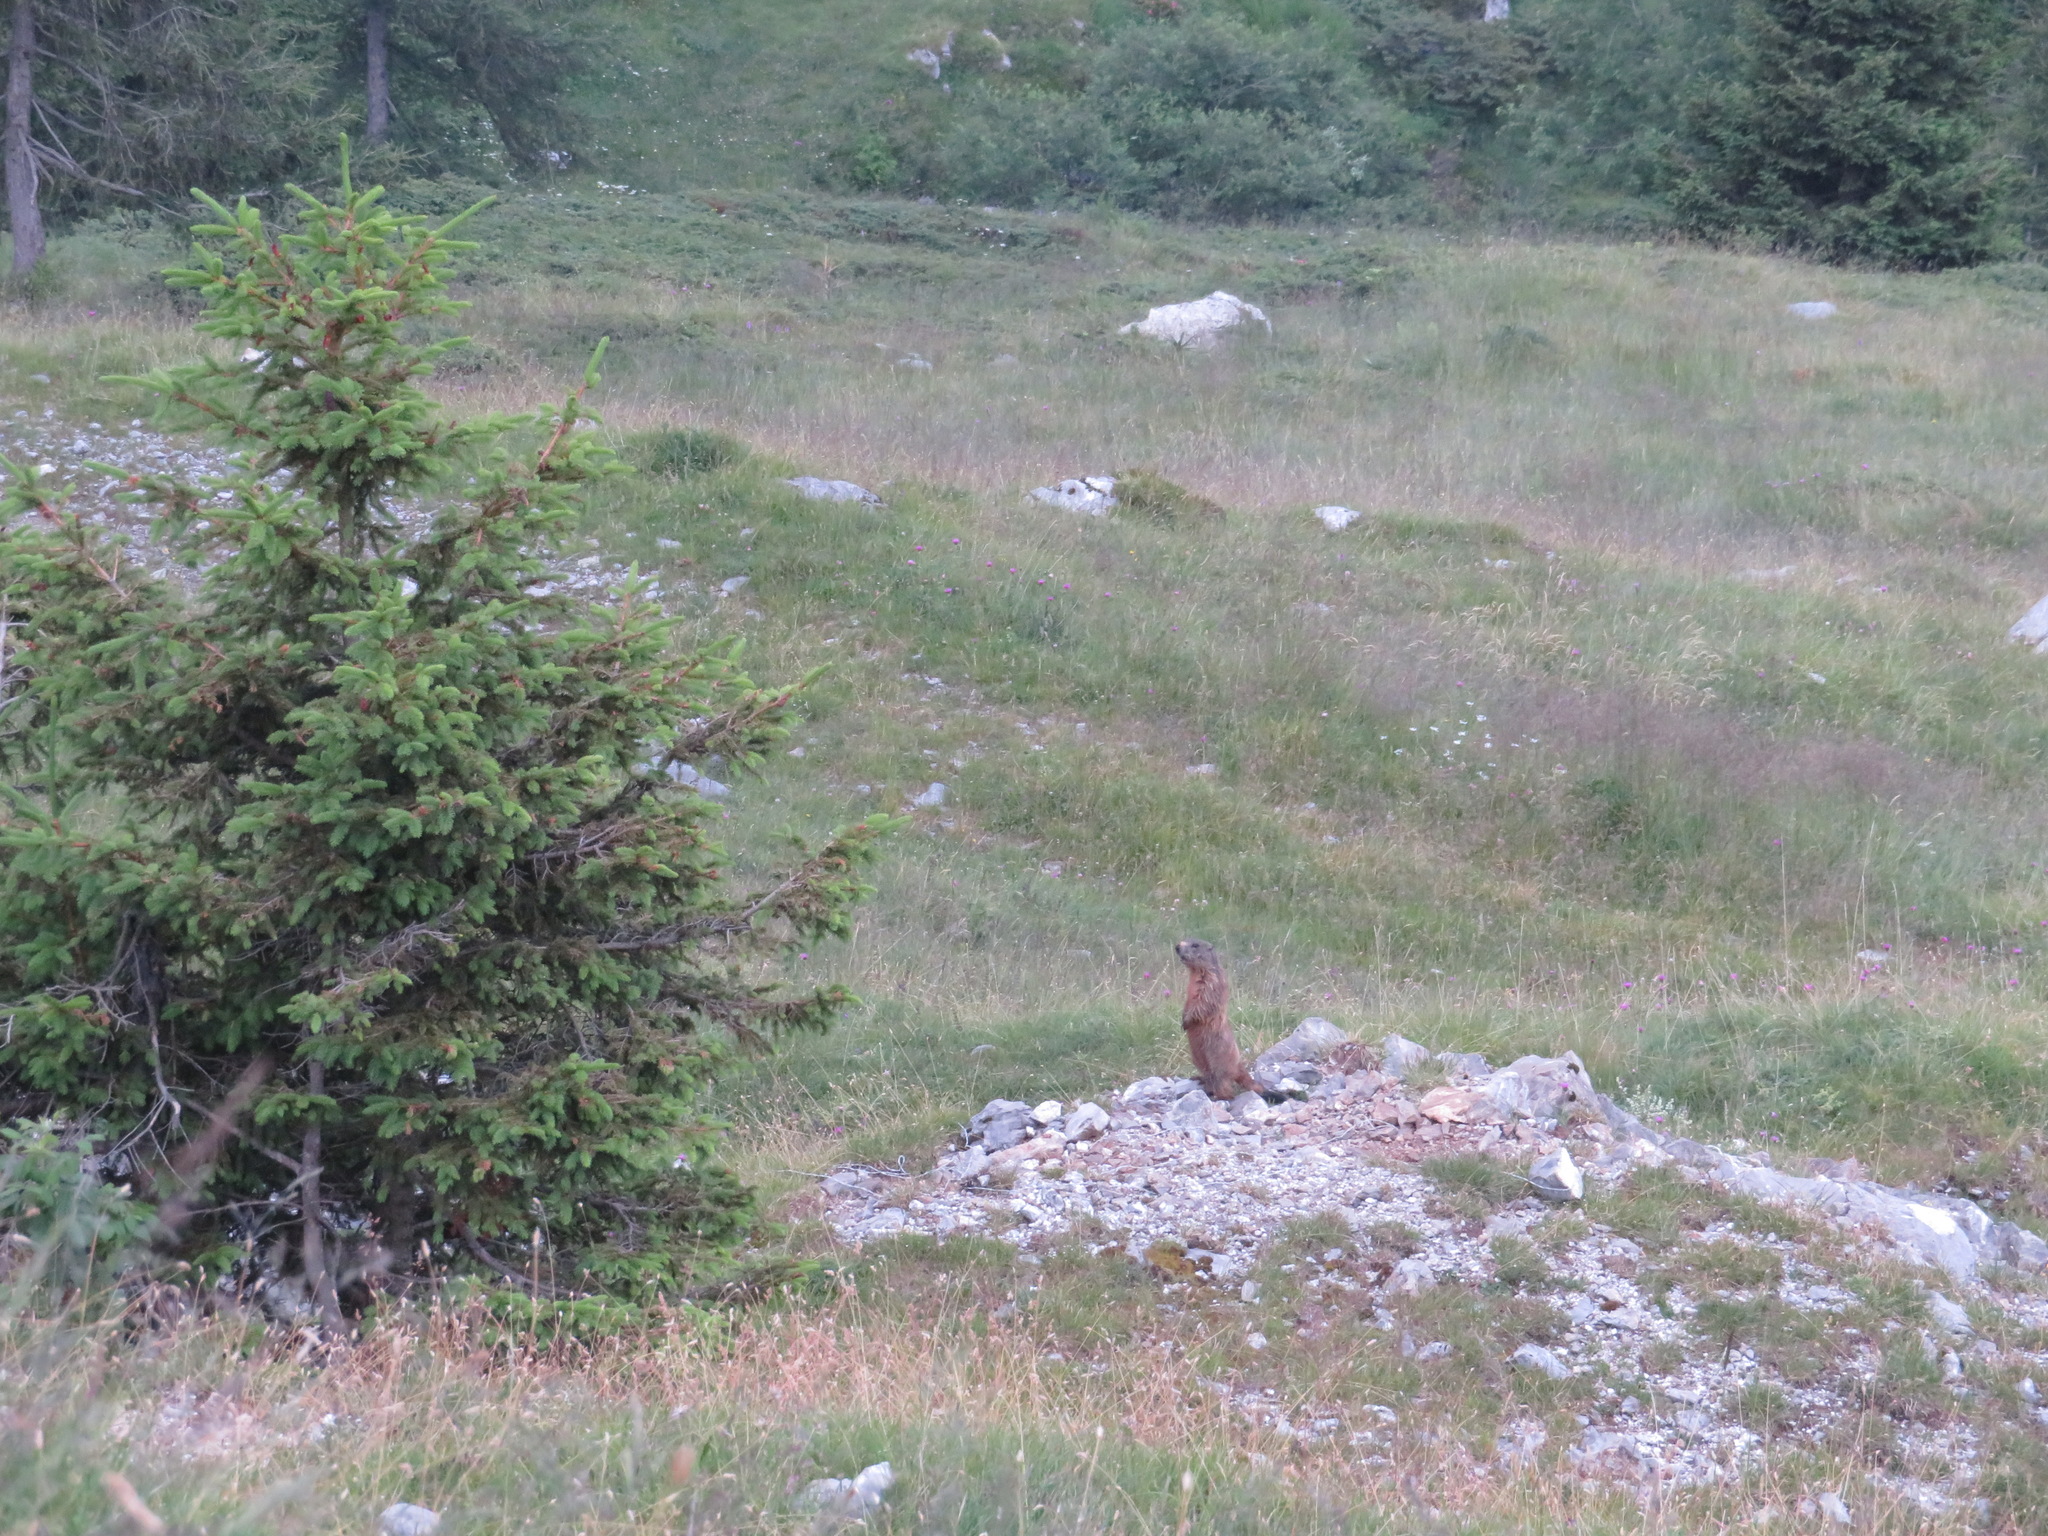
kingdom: Animalia
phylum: Chordata
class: Mammalia
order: Rodentia
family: Sciuridae
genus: Marmota
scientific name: Marmota marmota
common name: Alpine marmot
